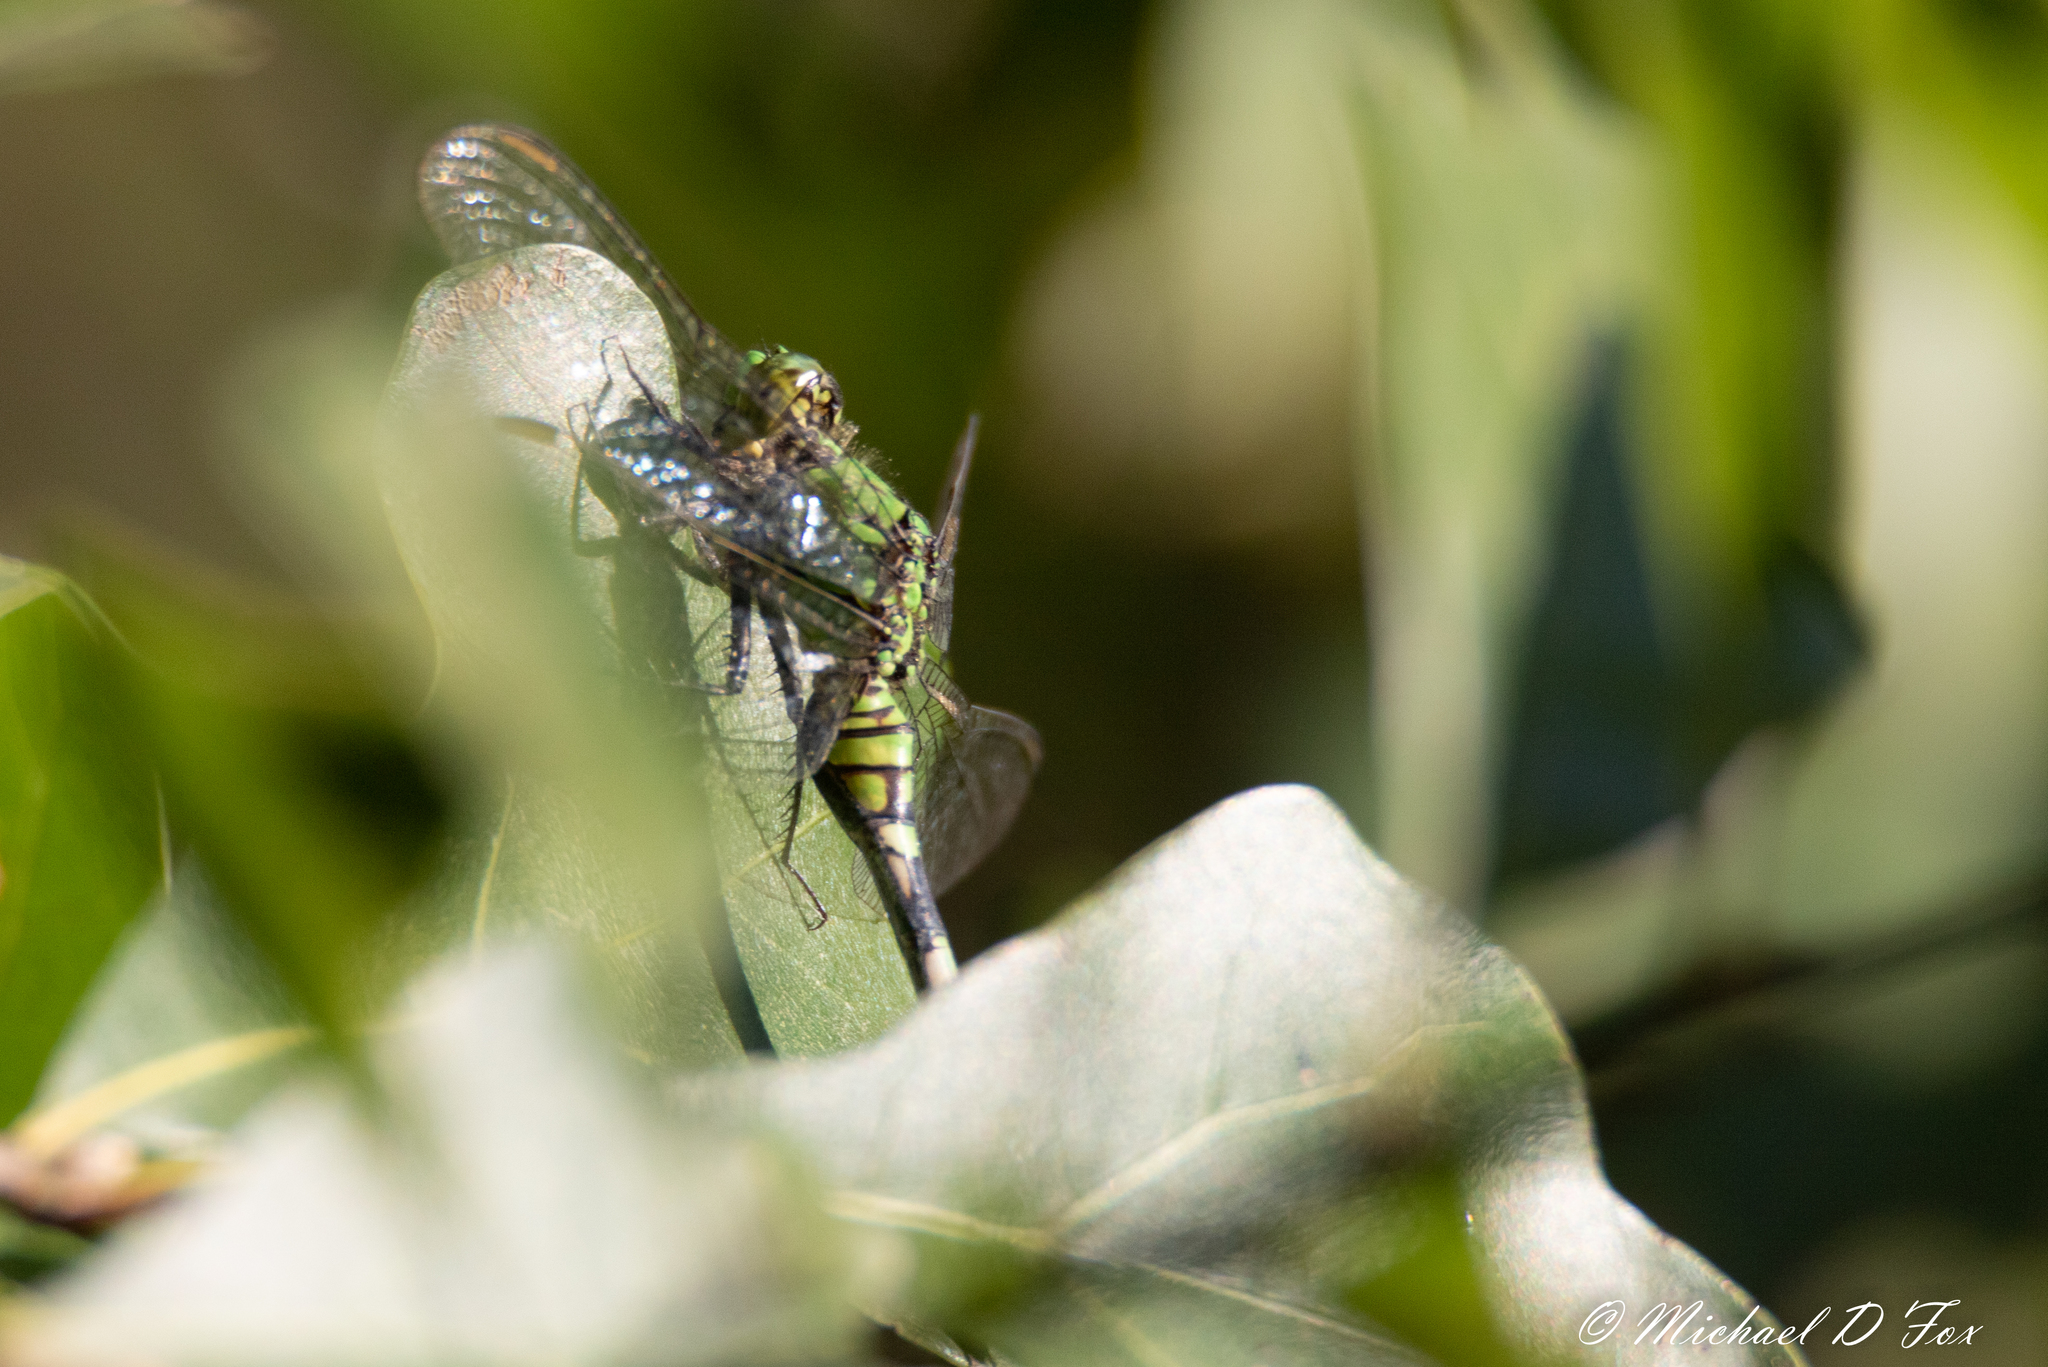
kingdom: Animalia
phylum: Arthropoda
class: Insecta
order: Odonata
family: Libellulidae
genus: Erythemis
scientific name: Erythemis simplicicollis
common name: Eastern pondhawk
